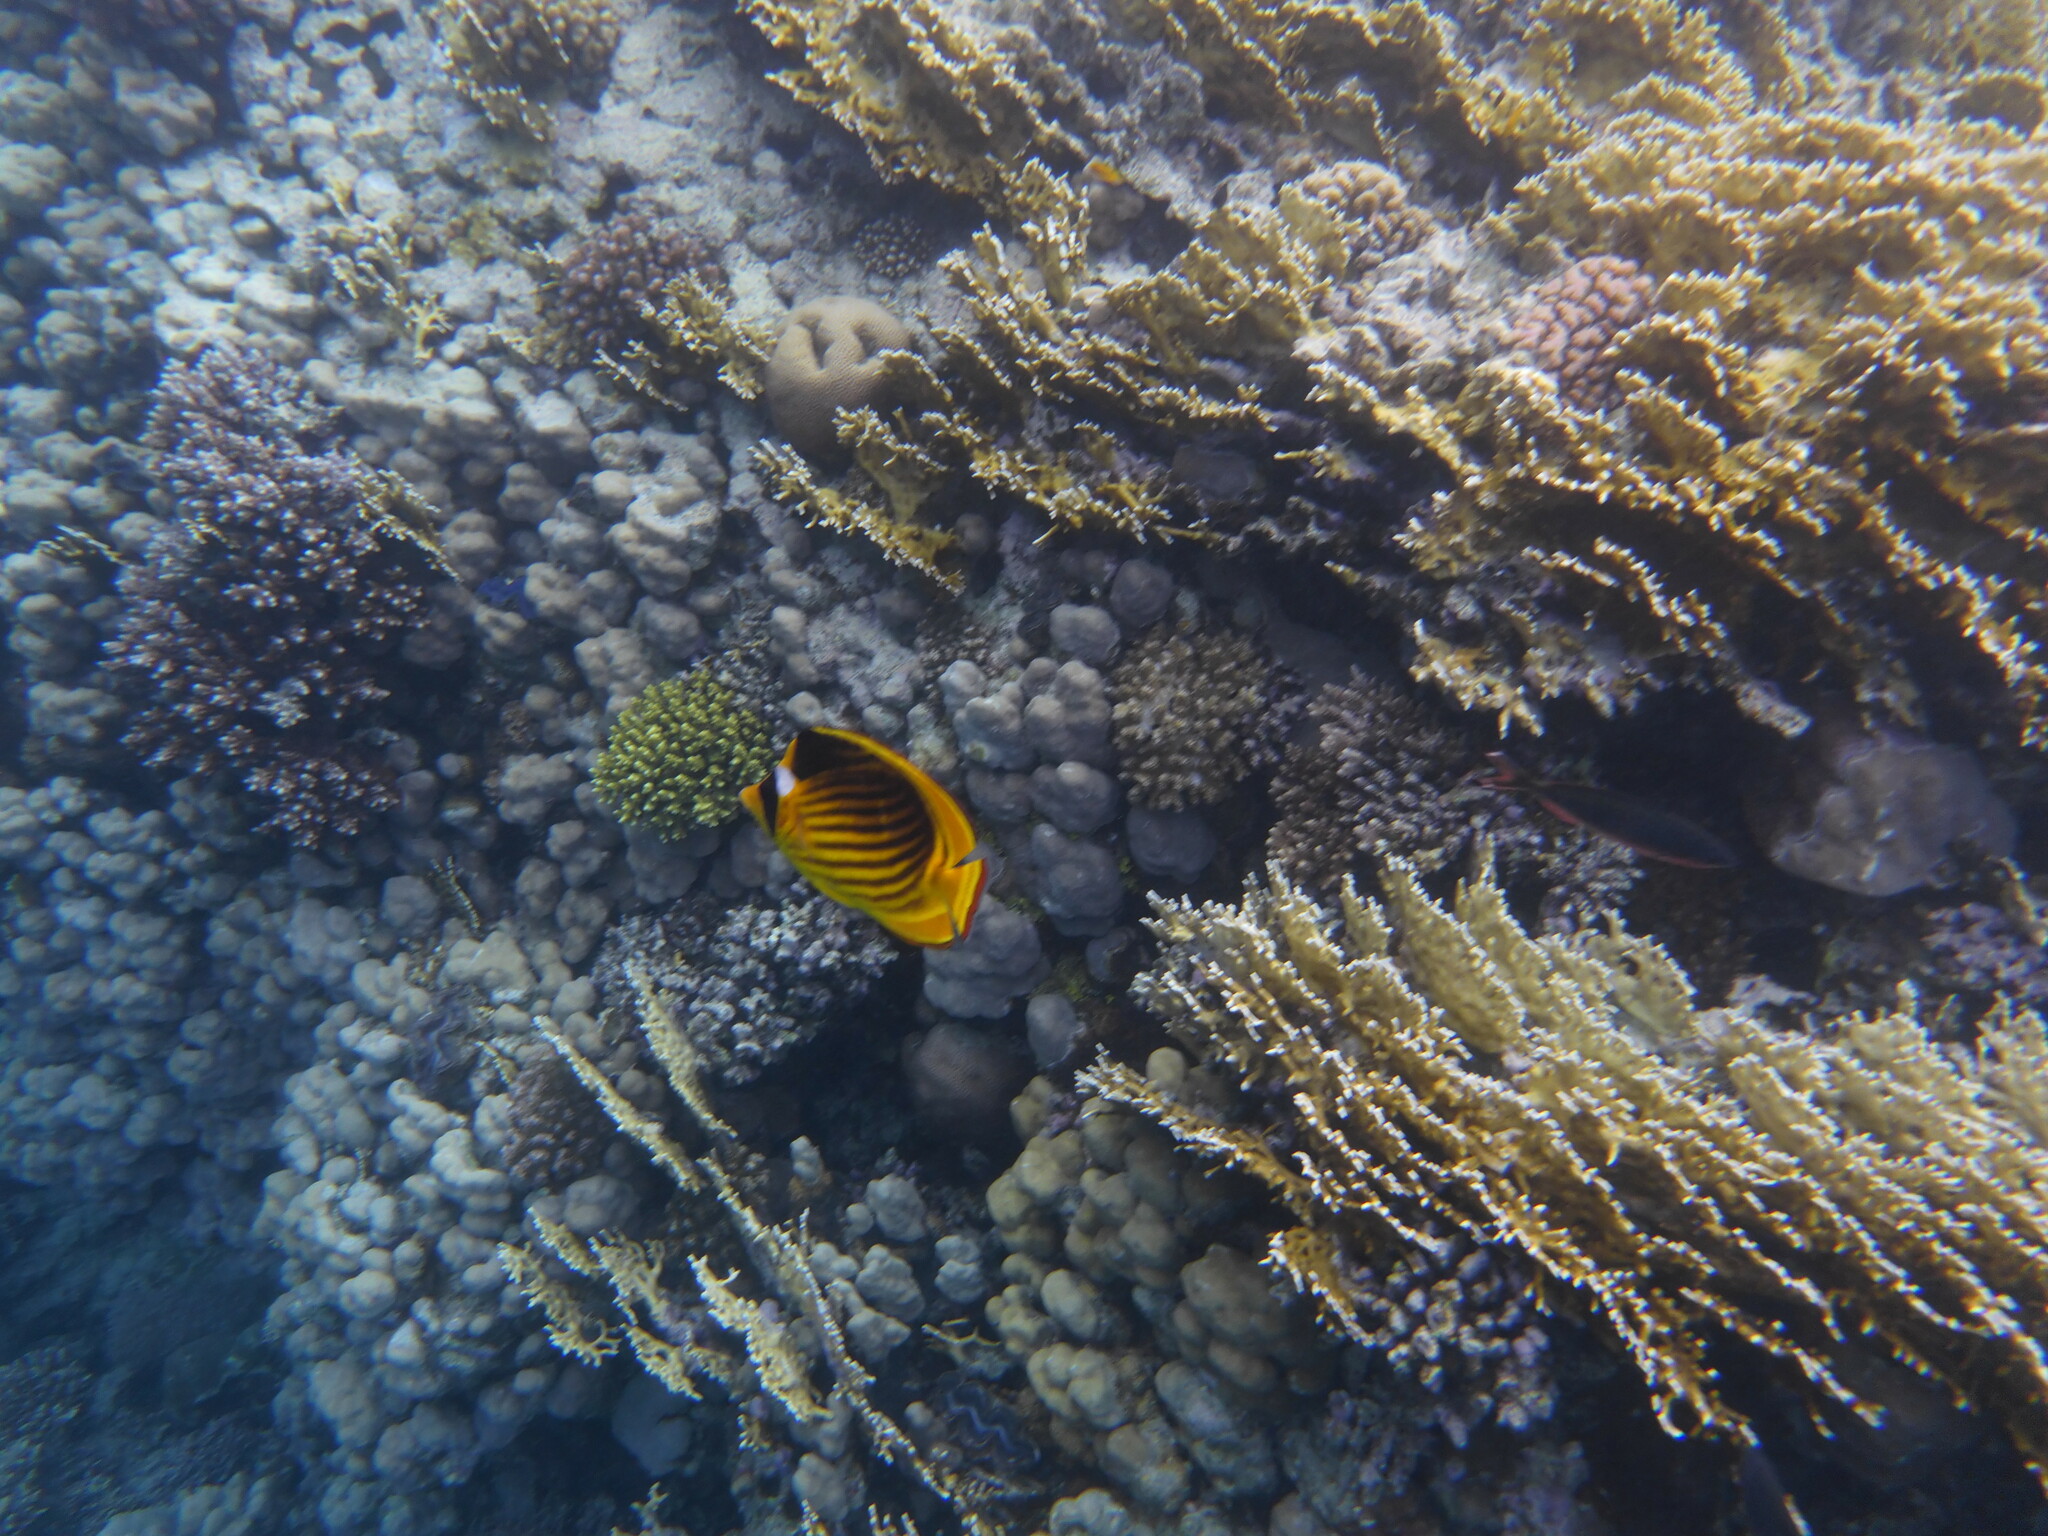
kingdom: Animalia
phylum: Chordata
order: Perciformes
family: Chaetodontidae
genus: Chaetodon
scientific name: Chaetodon fasciatus
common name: Diagonal butterflyfish
